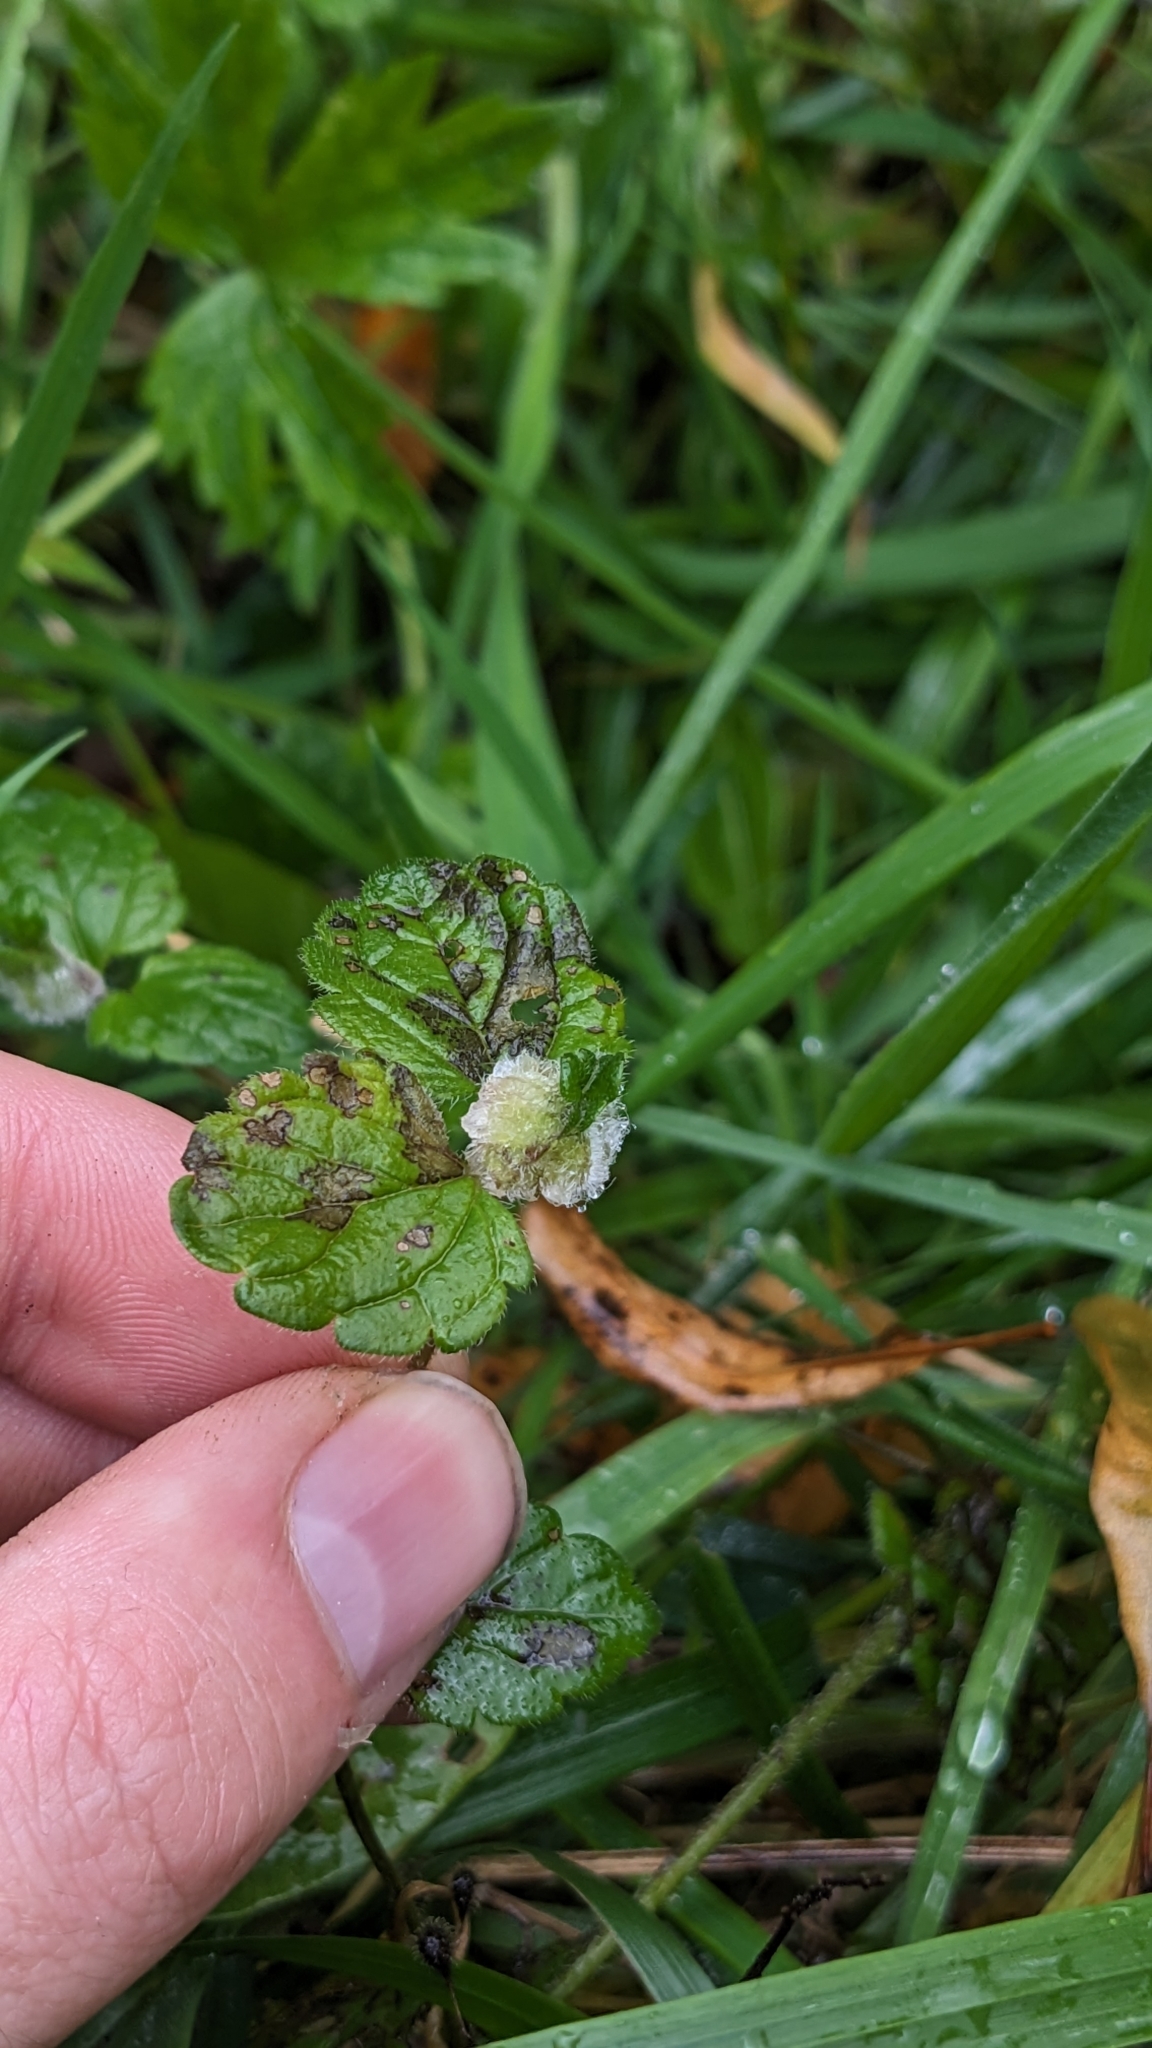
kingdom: Animalia
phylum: Arthropoda
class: Insecta
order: Diptera
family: Cecidomyiidae
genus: Jaapiella
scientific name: Jaapiella veronicae
